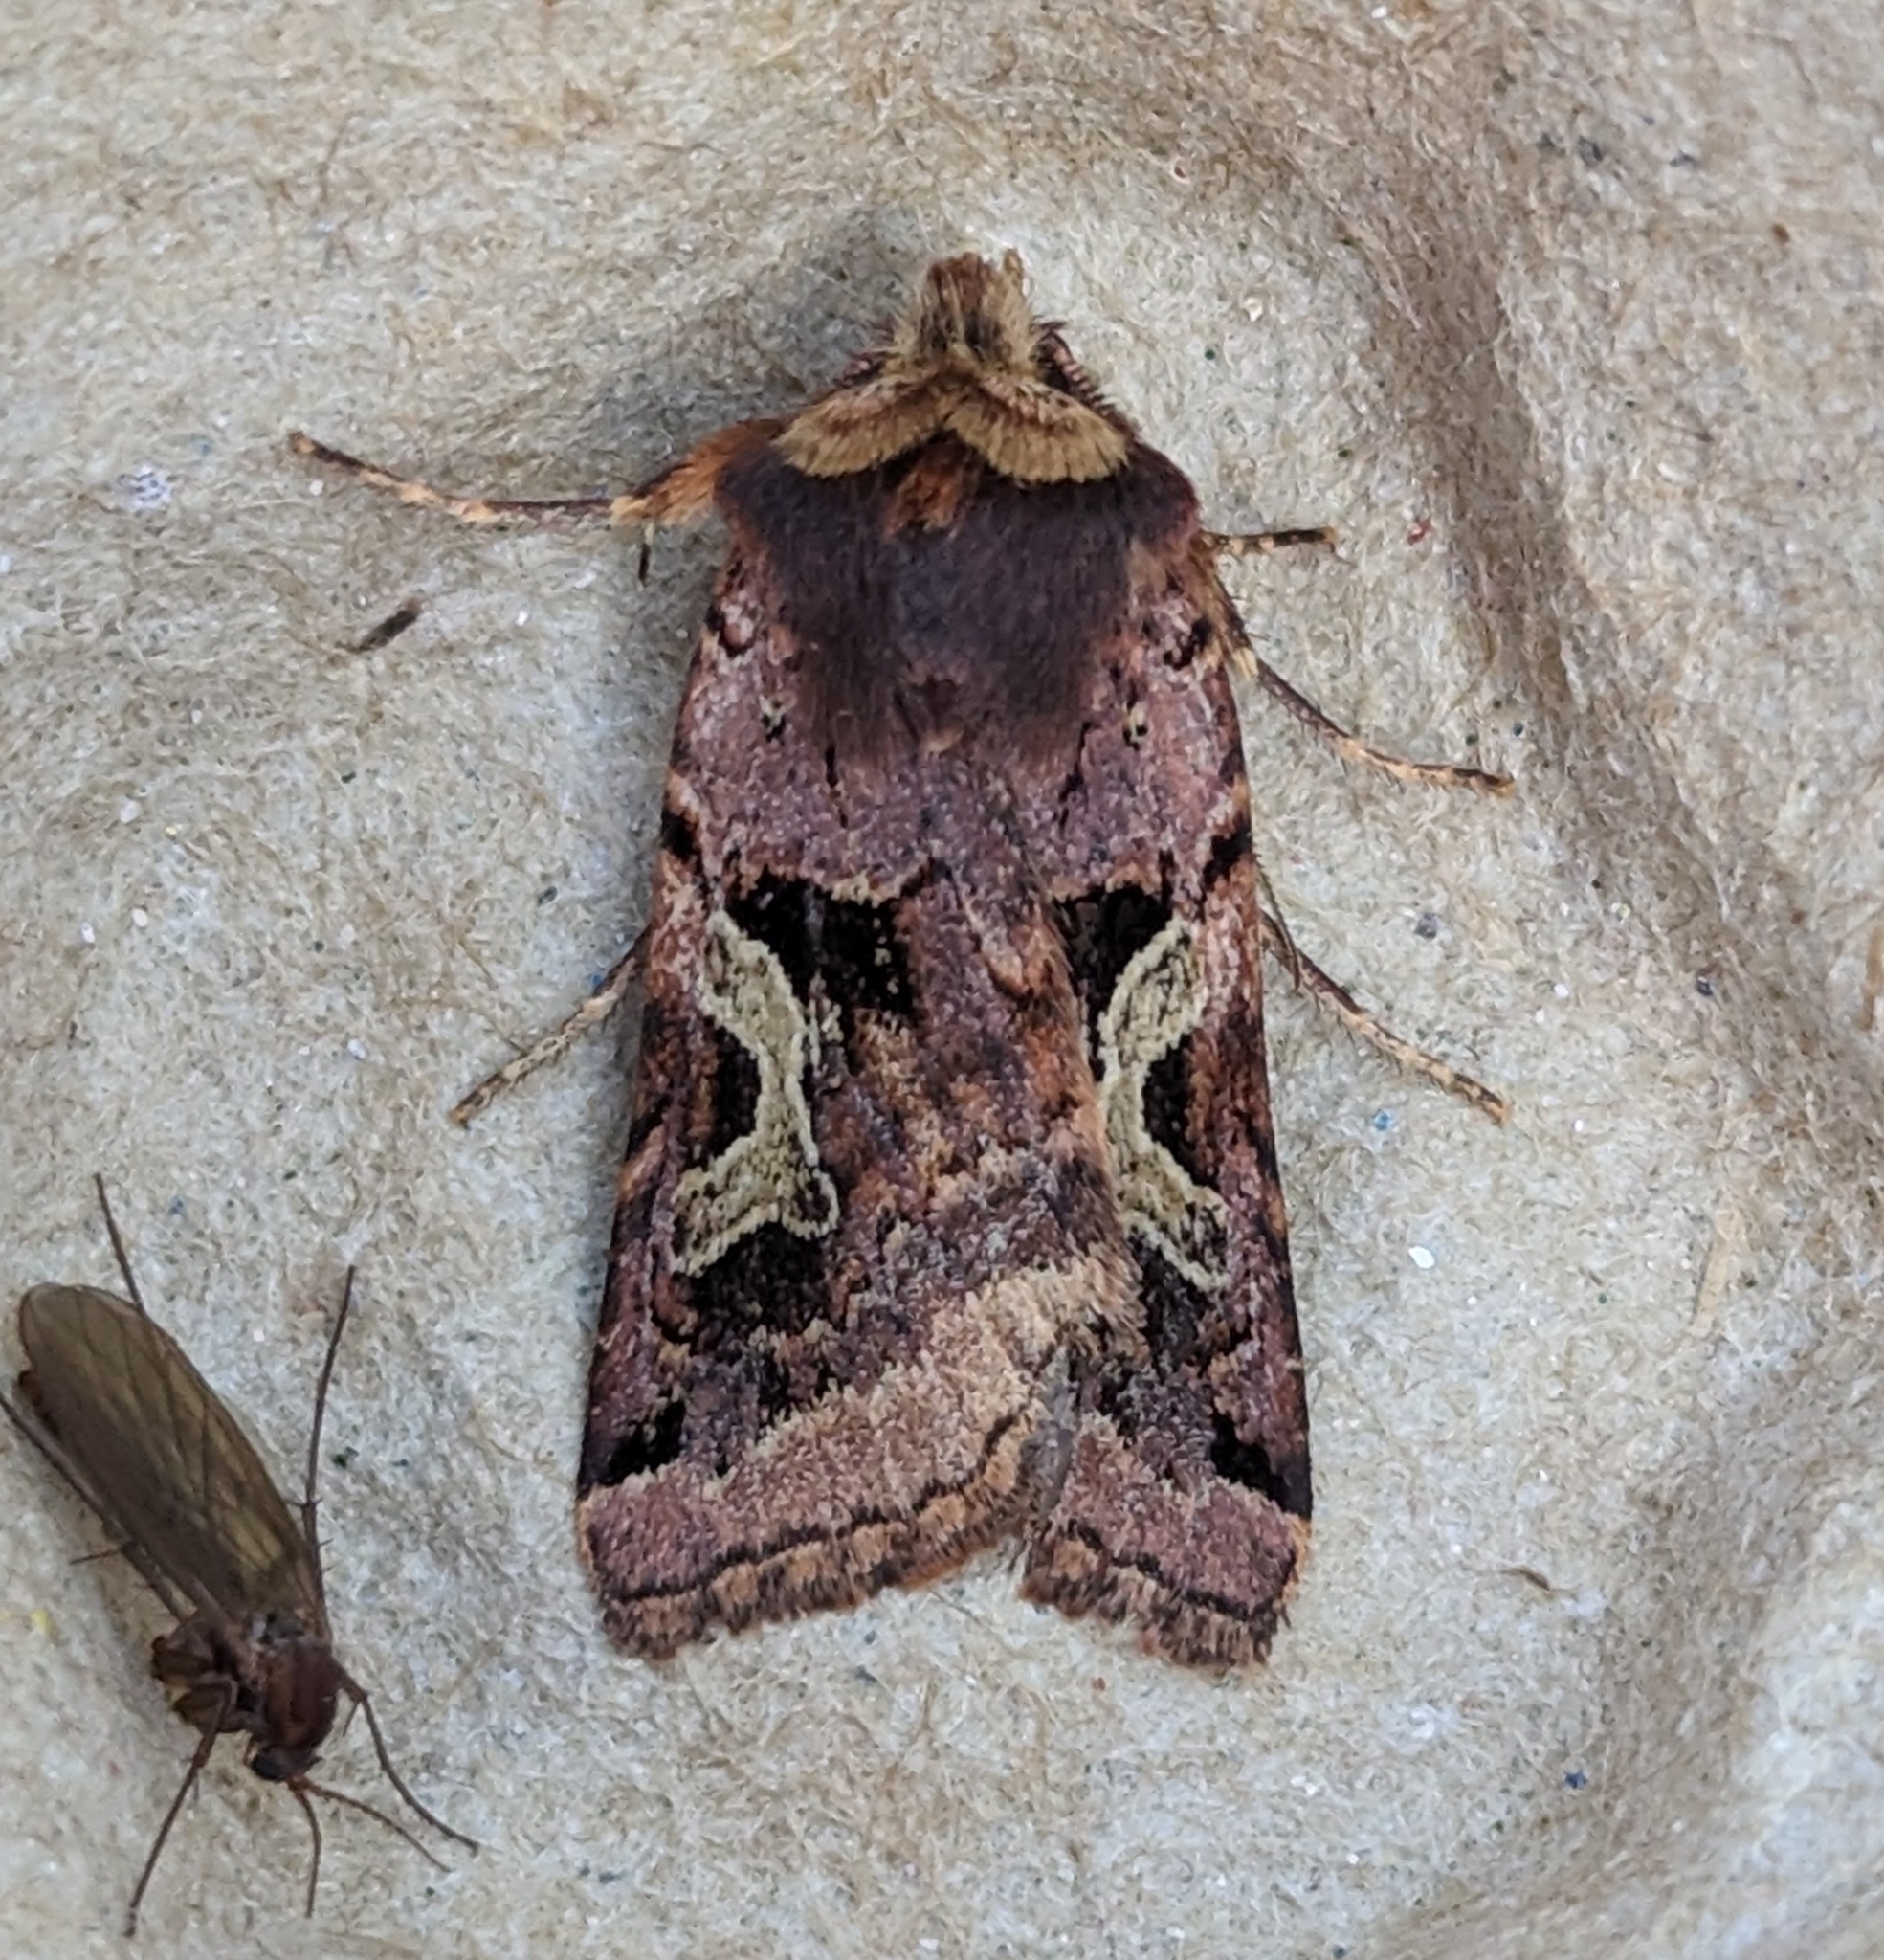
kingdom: Animalia
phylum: Arthropoda
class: Insecta
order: Lepidoptera
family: Noctuidae
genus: Cerastis
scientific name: Cerastis enigmatica
